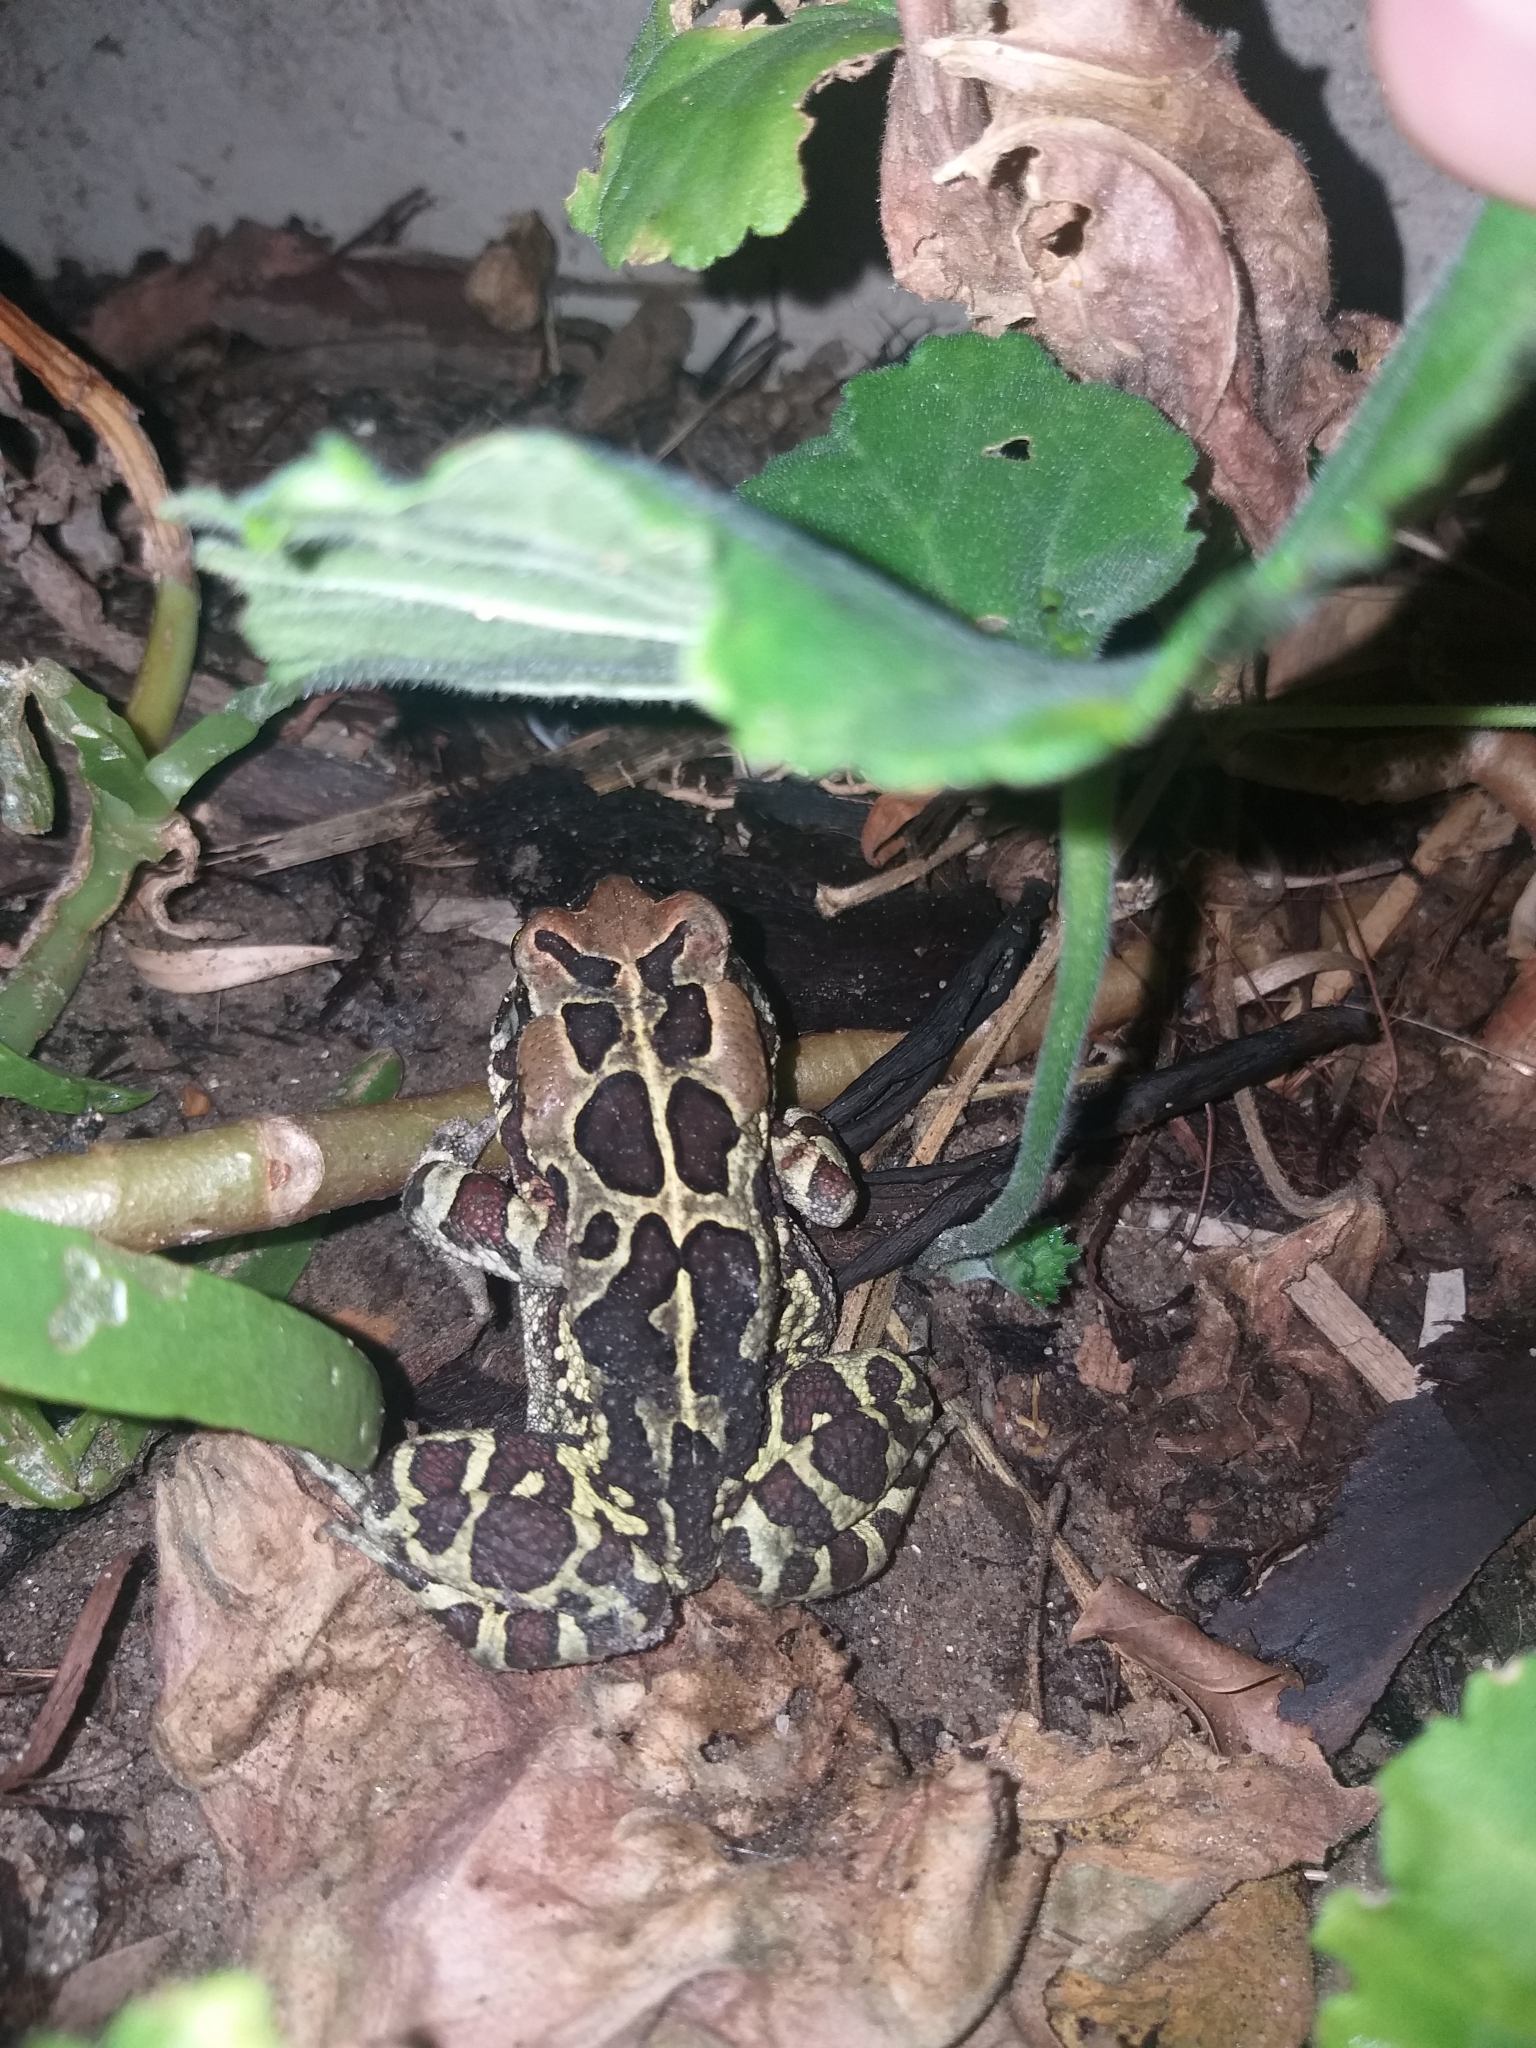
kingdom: Animalia
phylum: Chordata
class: Amphibia
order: Anura
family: Bufonidae
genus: Sclerophrys
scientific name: Sclerophrys pantherina
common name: Panther toad
